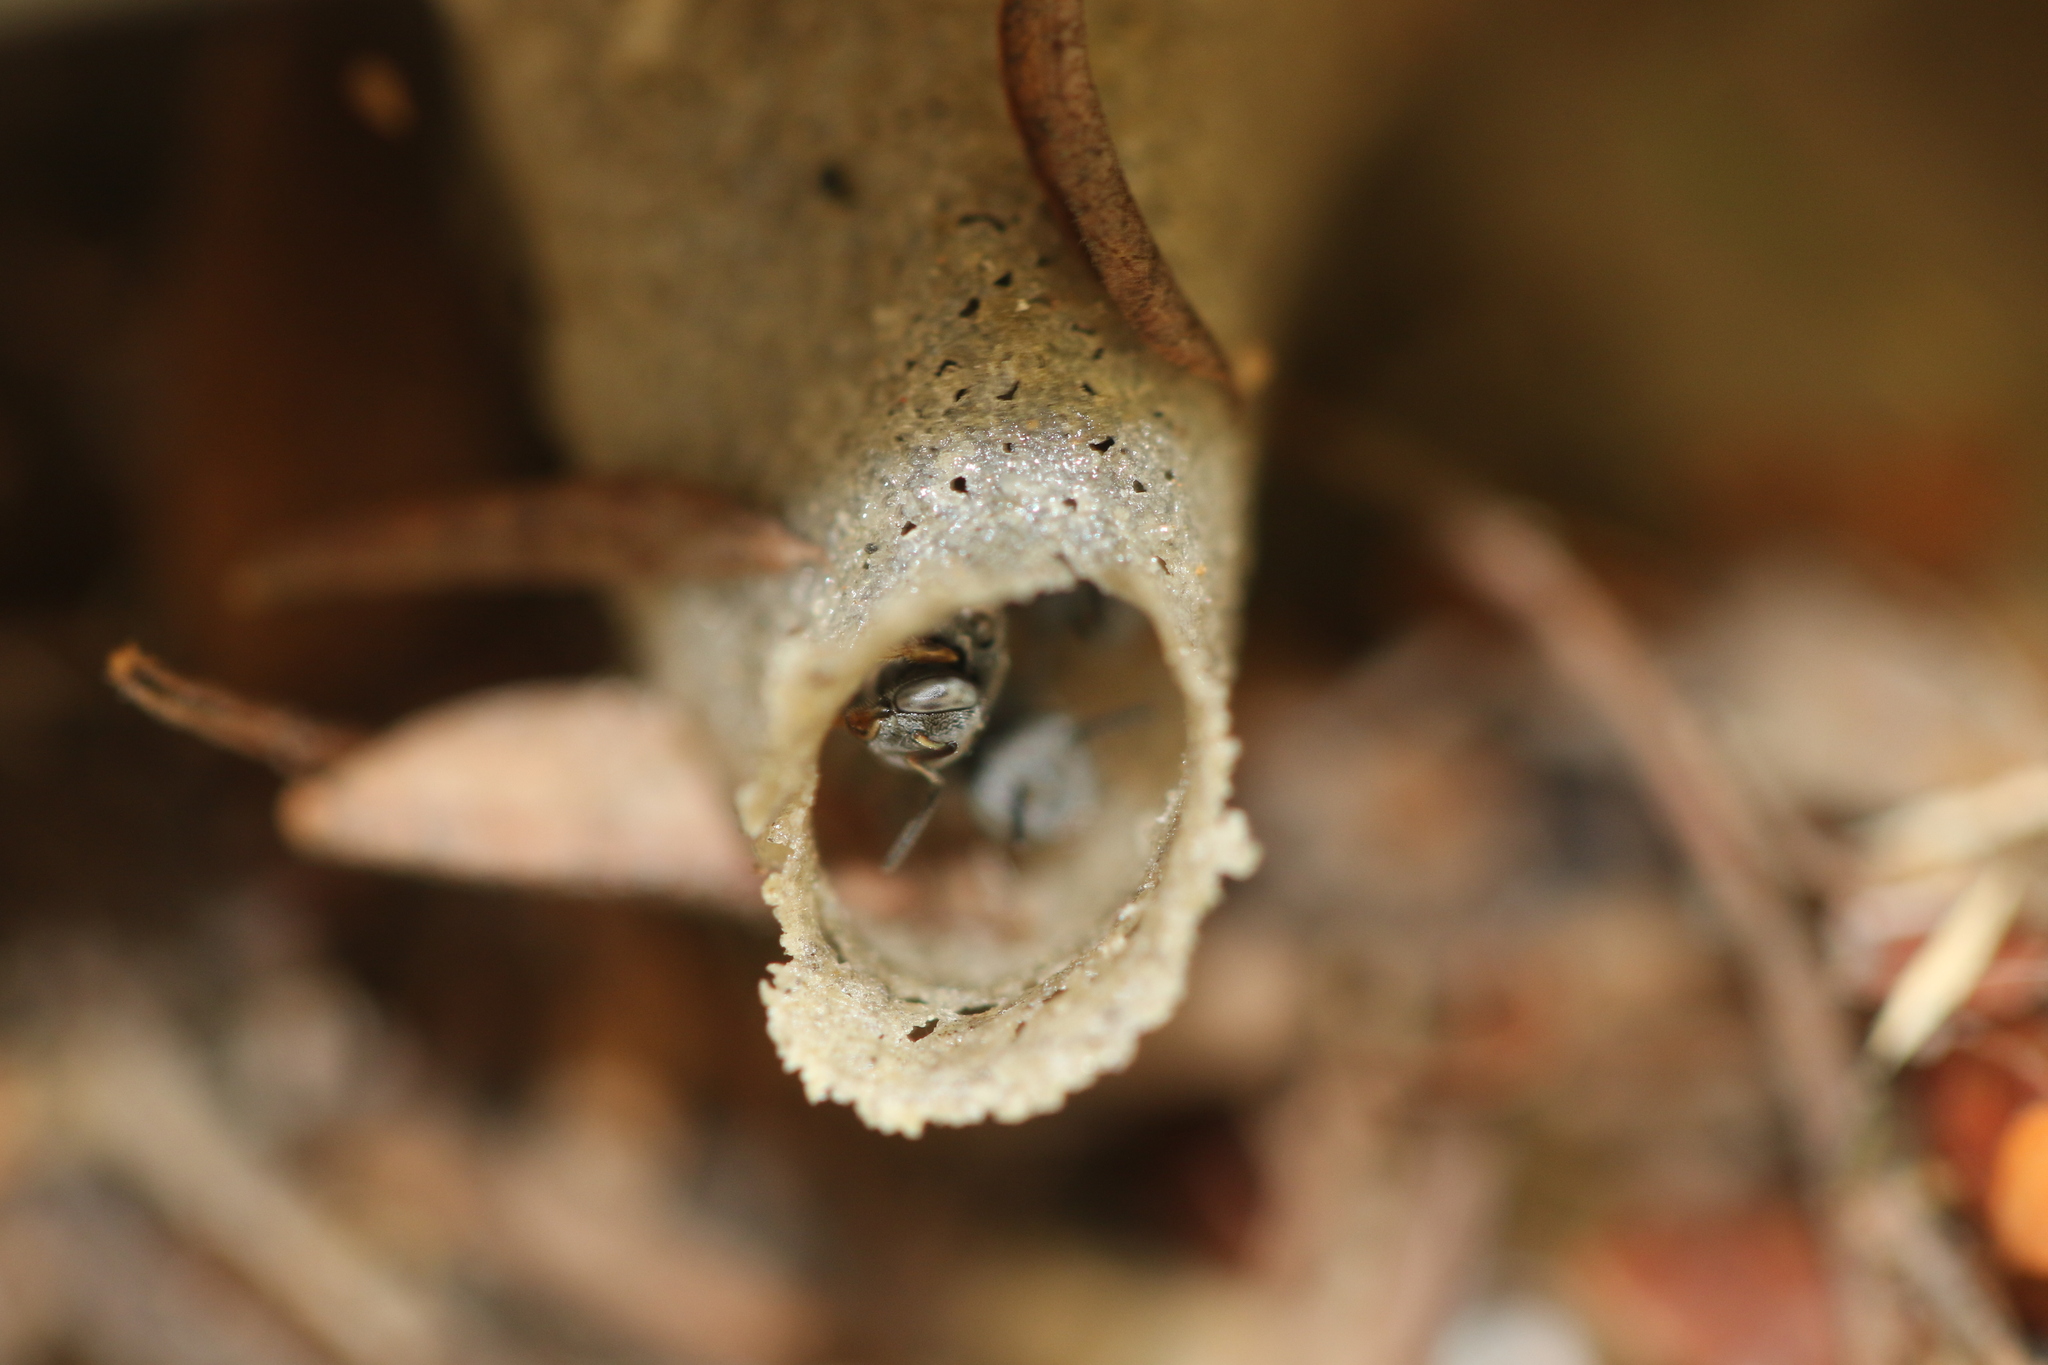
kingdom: Animalia
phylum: Arthropoda
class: Insecta
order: Hymenoptera
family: Apidae
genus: Friesella
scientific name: Friesella schrottkyi
